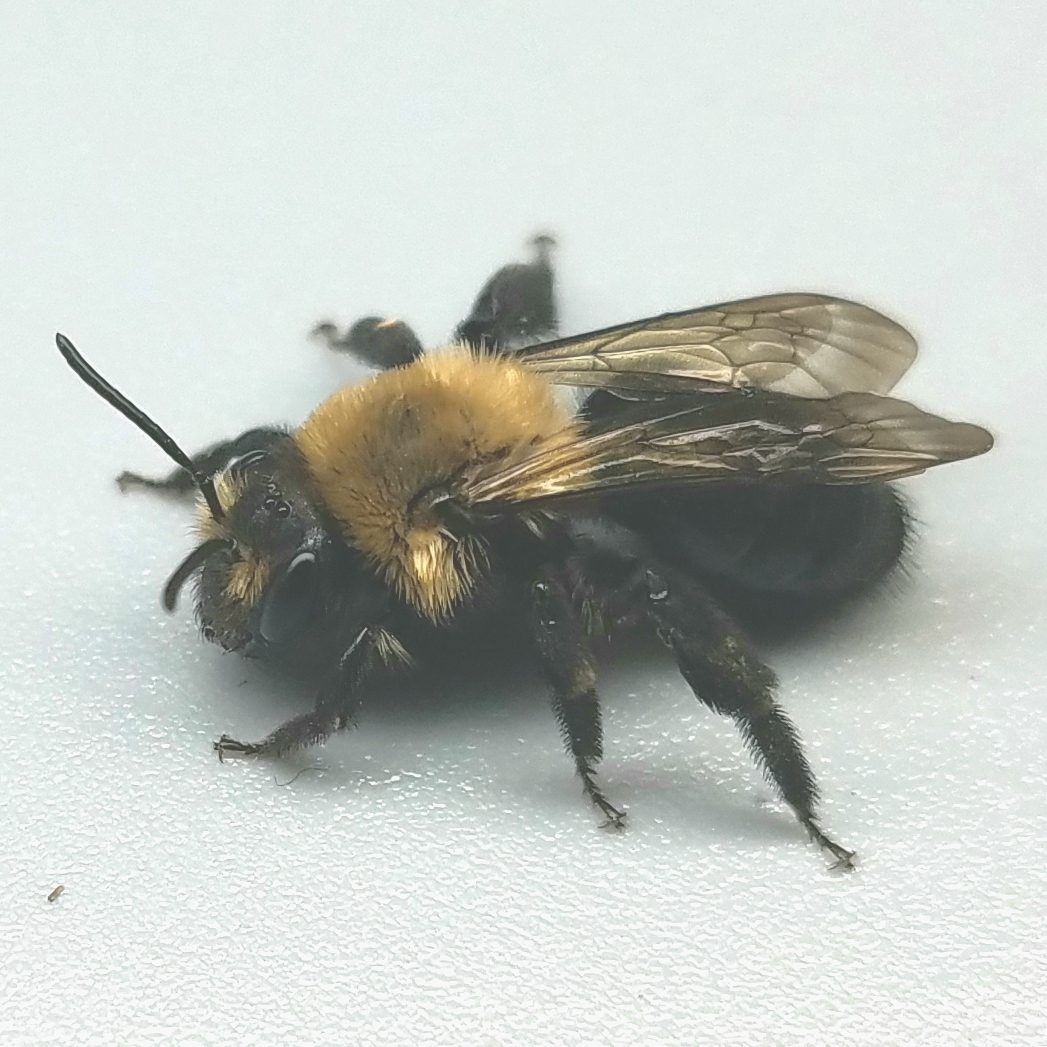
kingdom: Animalia
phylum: Arthropoda
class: Insecta
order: Hymenoptera
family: Andrenidae
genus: Andrena
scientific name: Andrena carlini
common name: Carlin's mining bee
